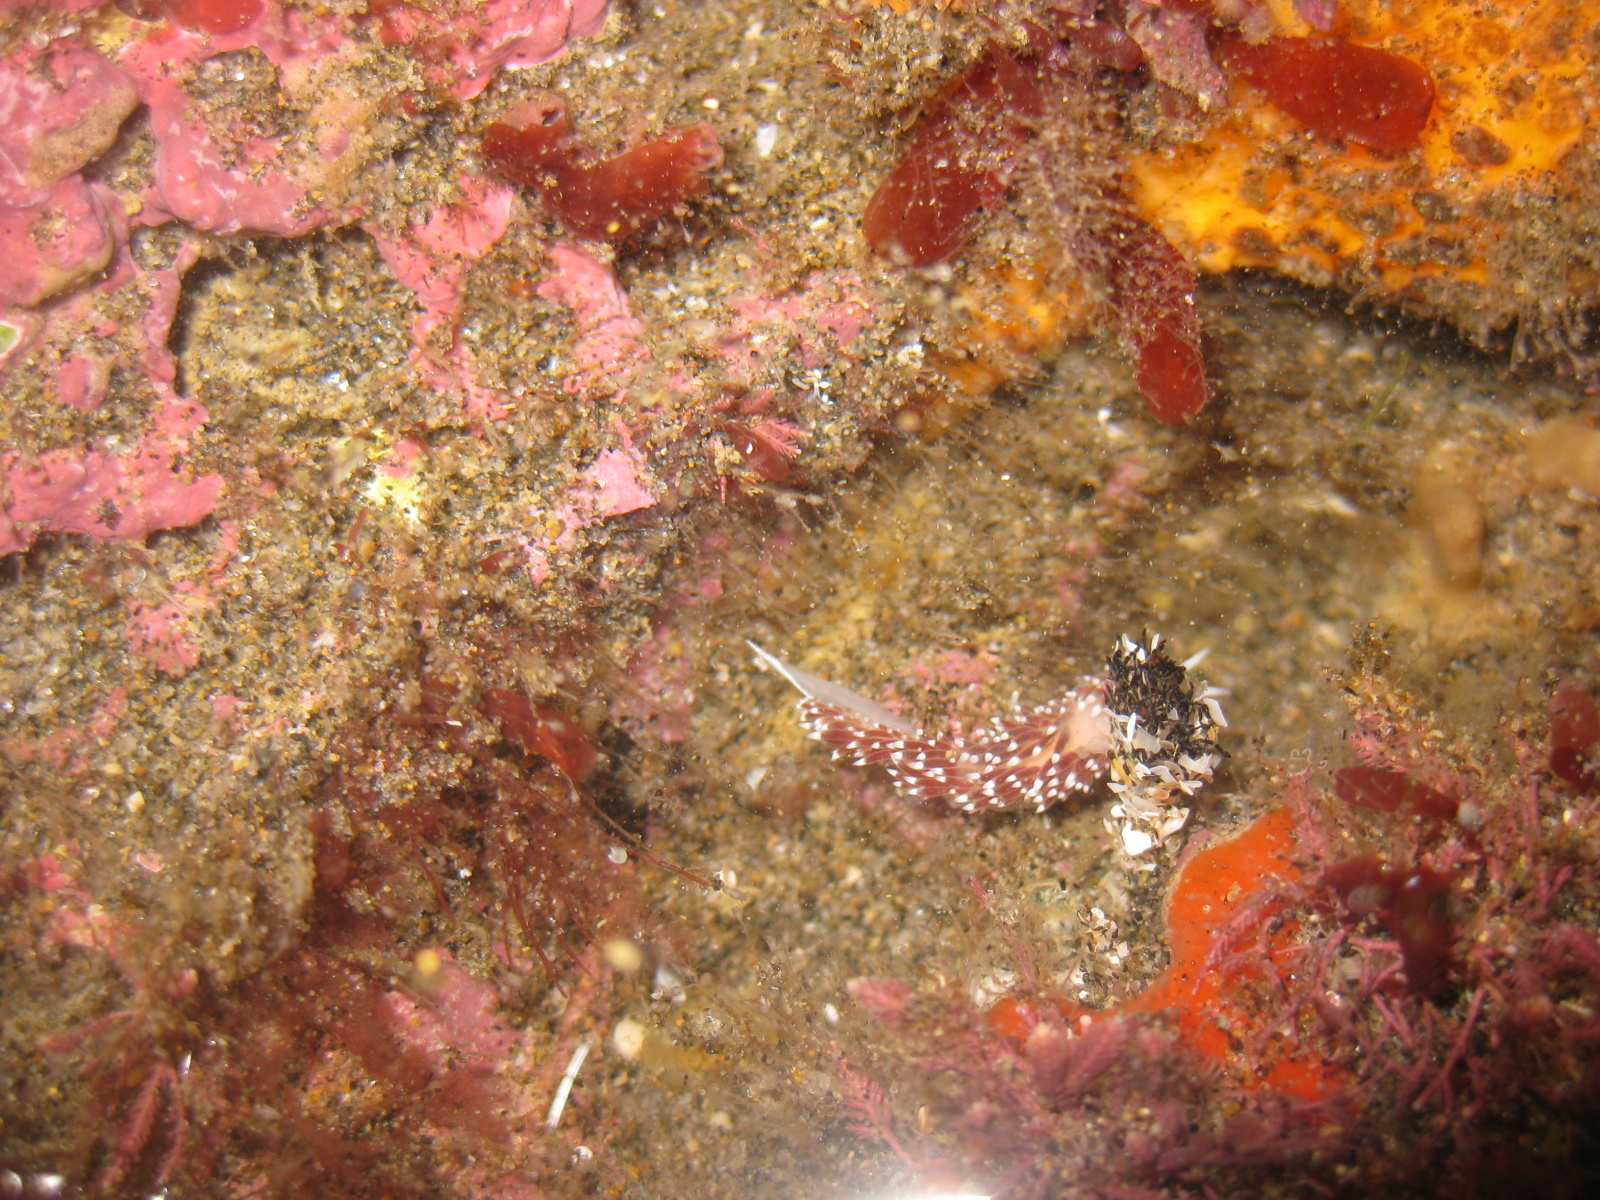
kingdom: Animalia
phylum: Mollusca
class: Gastropoda
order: Nudibranchia
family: Facelinidae
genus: Phidiana
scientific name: Phidiana milleri
